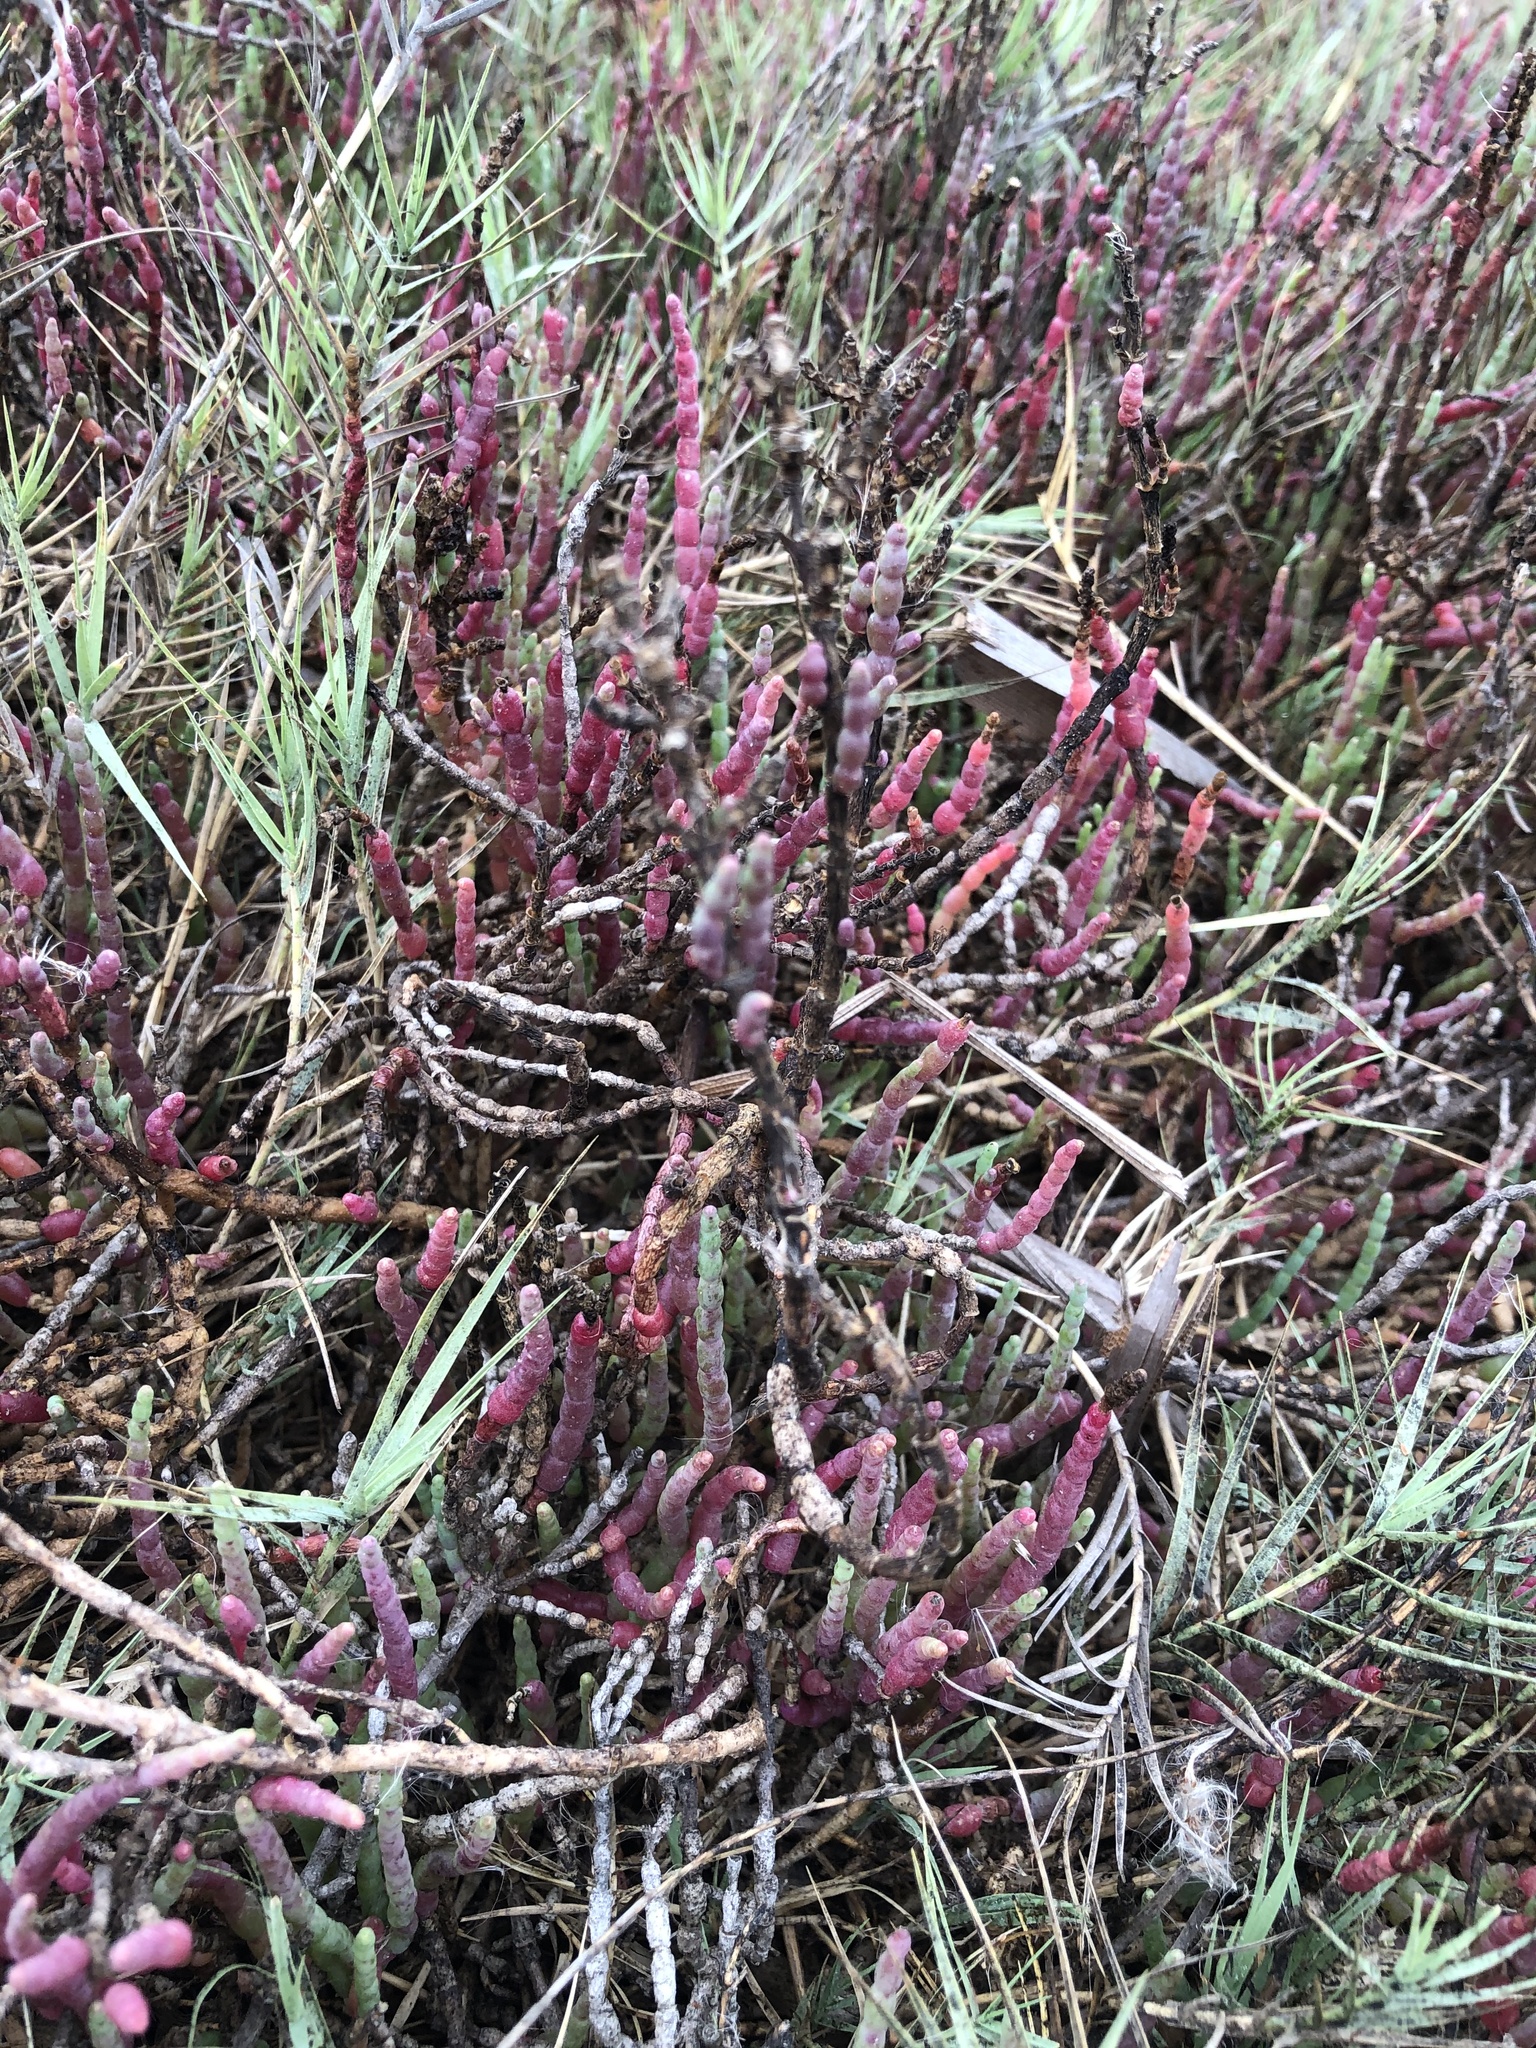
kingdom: Plantae
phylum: Tracheophyta
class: Magnoliopsida
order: Caryophyllales
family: Amaranthaceae
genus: Salicornia
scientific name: Salicornia neei
